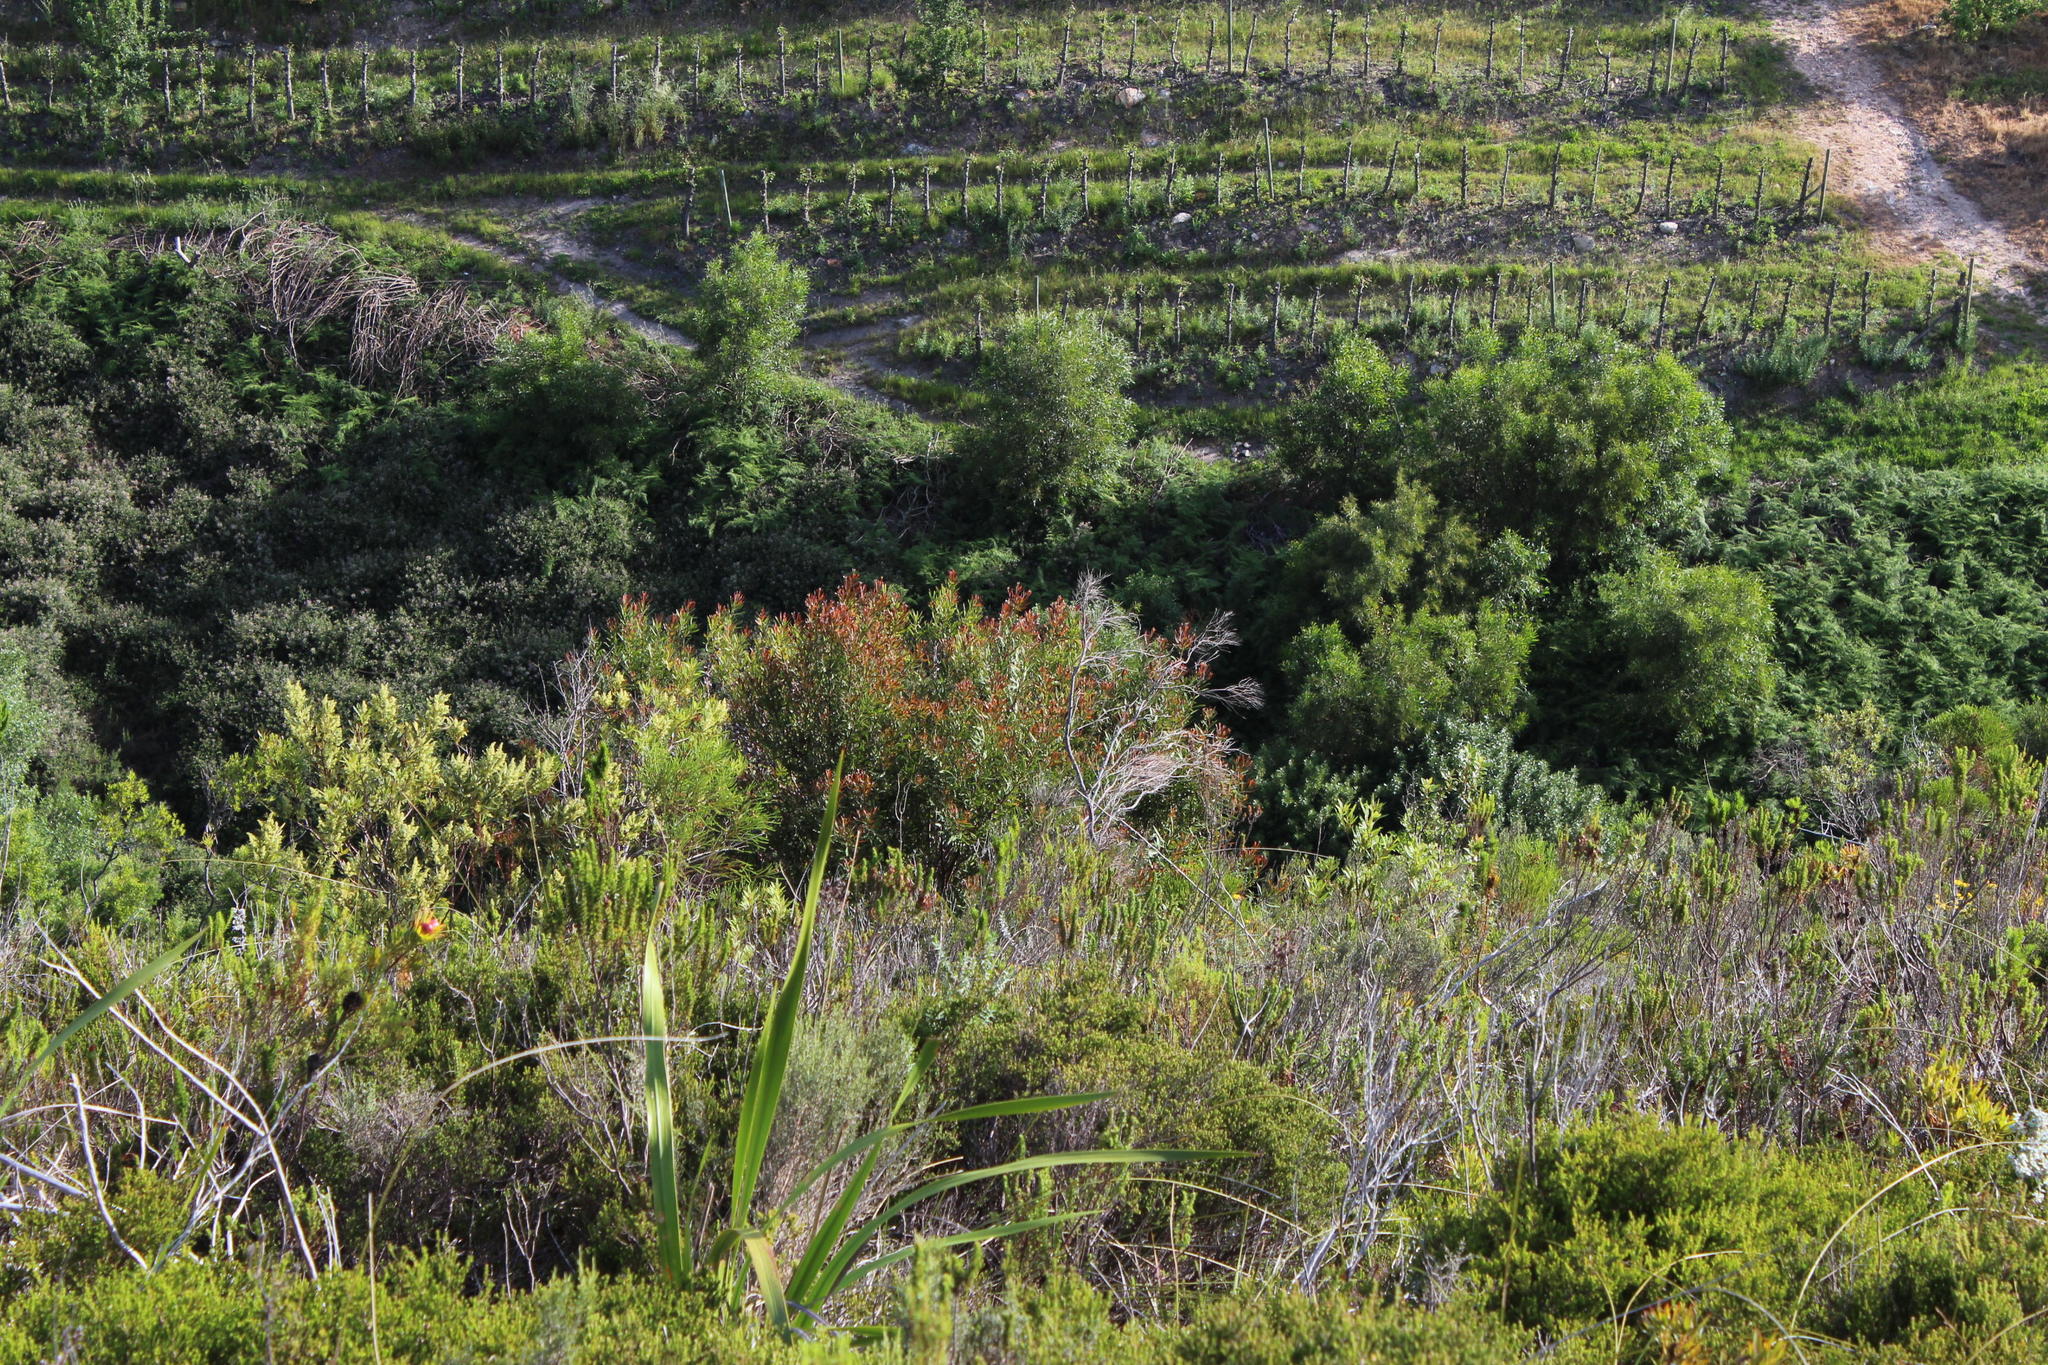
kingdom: Plantae
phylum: Tracheophyta
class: Magnoliopsida
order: Proteales
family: Proteaceae
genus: Hakea
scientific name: Hakea salicifolia
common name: Willow hakea
